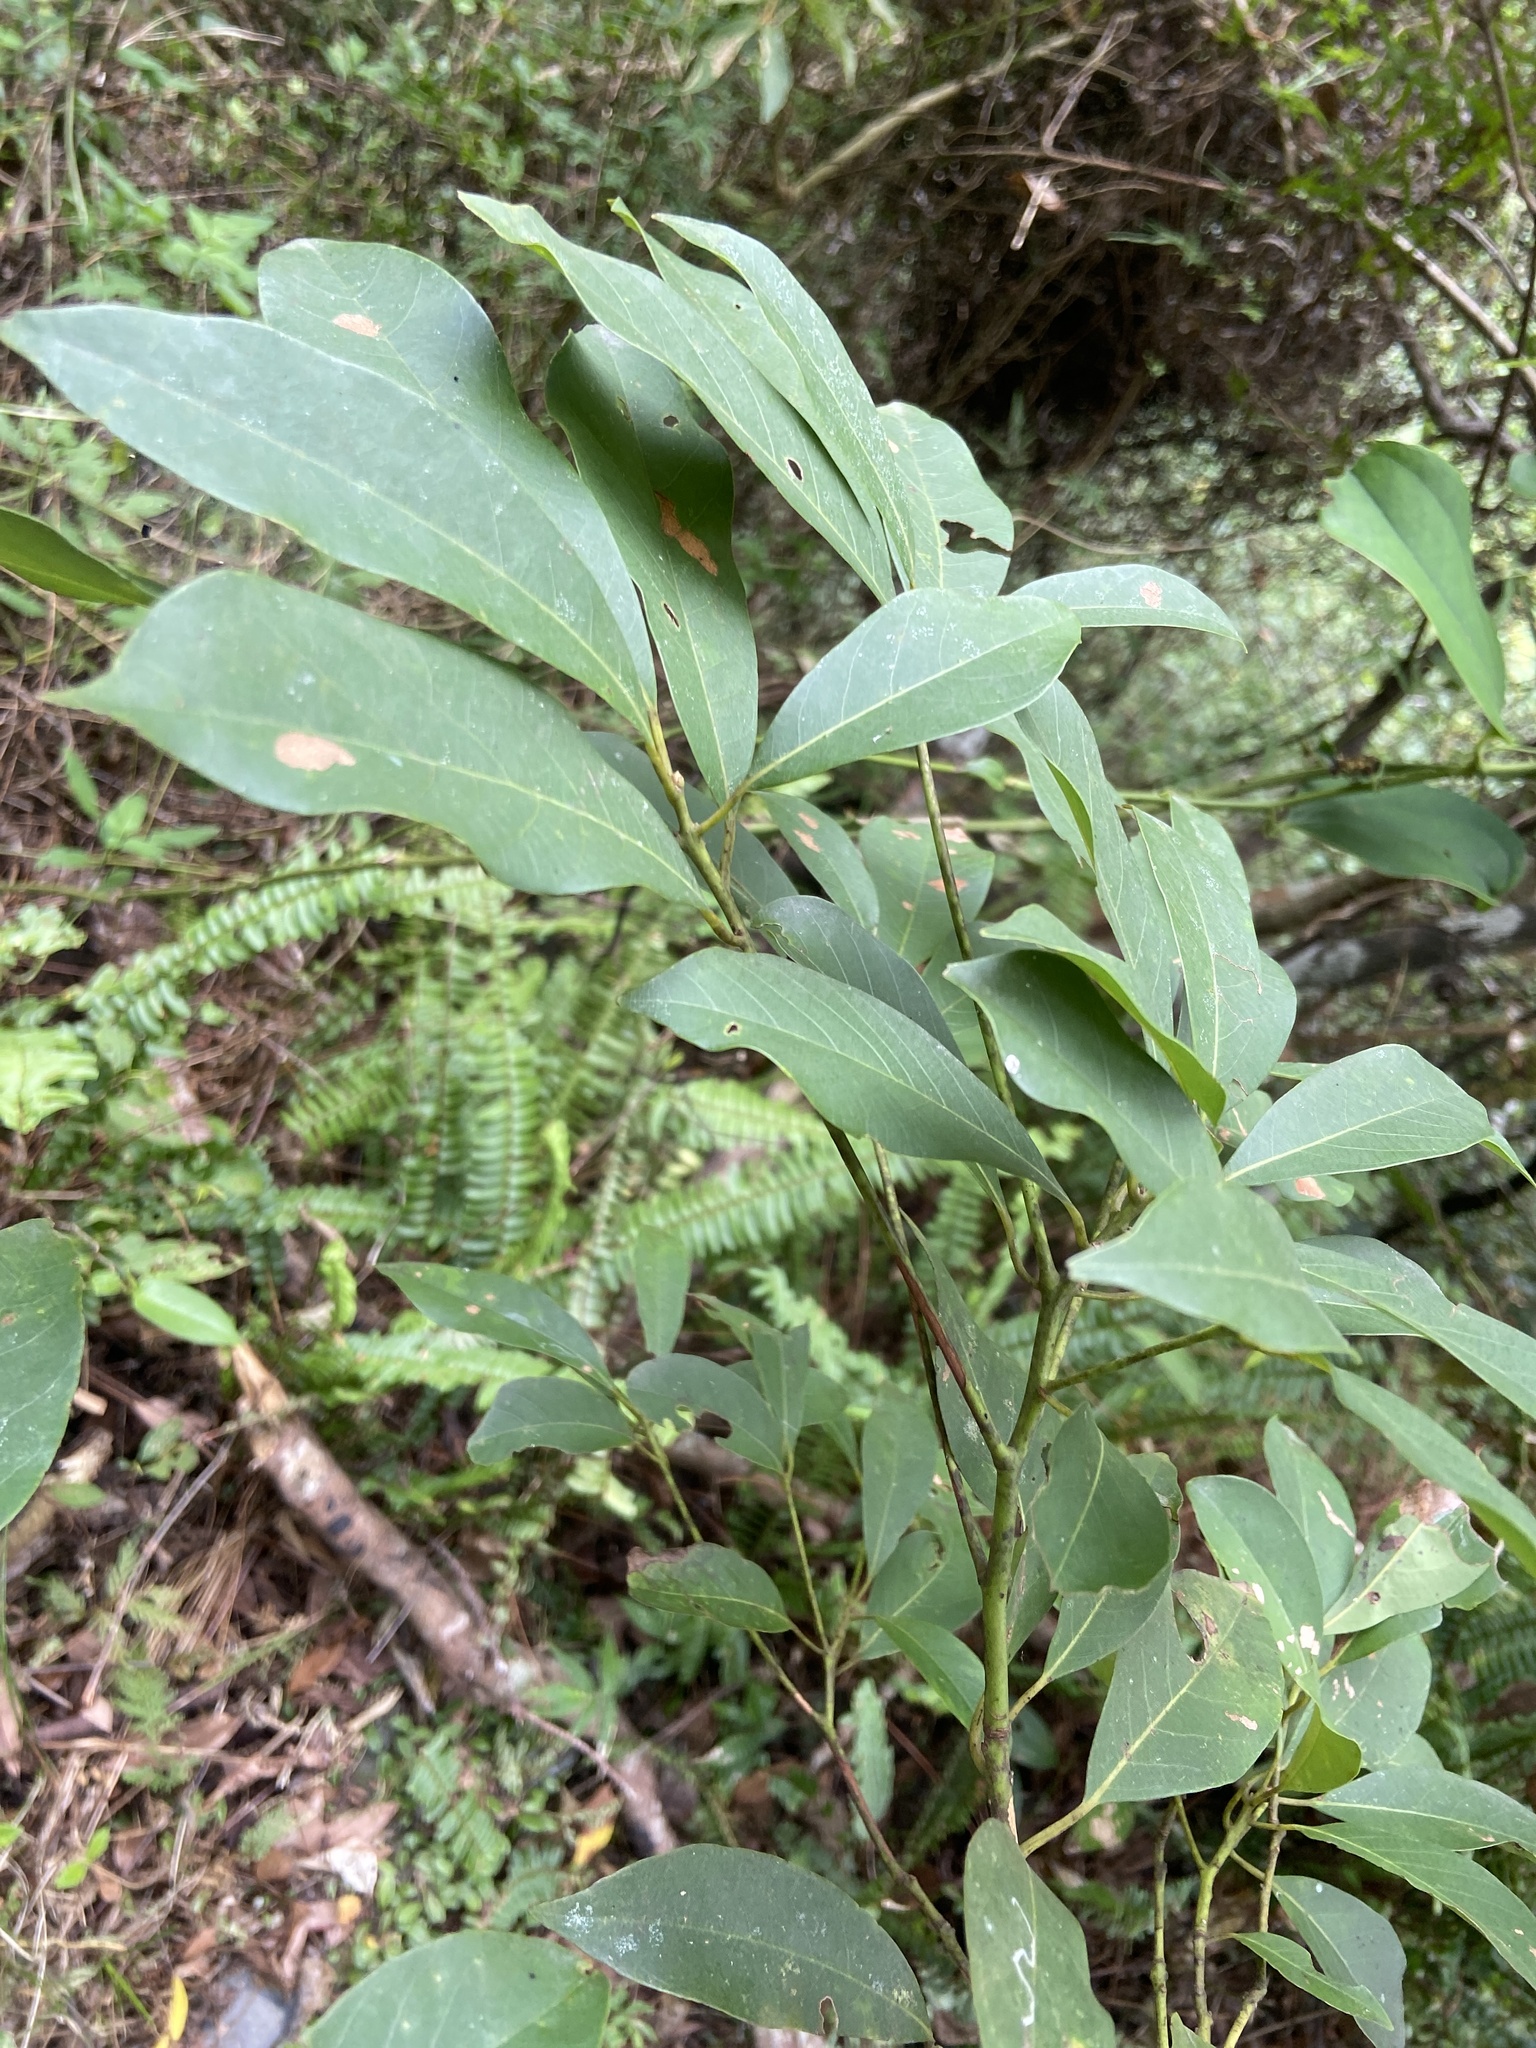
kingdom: Plantae
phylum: Tracheophyta
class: Magnoliopsida
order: Laurales
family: Lauraceae
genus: Machilus
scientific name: Machilus zuihoensis
